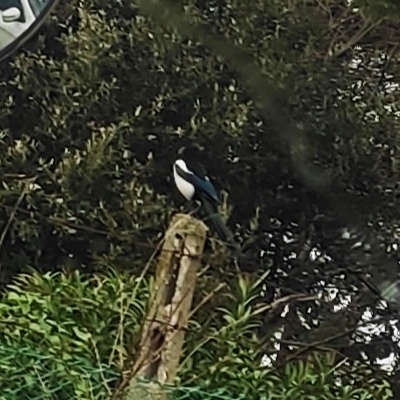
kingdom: Animalia
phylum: Chordata
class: Aves
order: Passeriformes
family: Corvidae
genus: Pica
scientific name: Pica pica
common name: Eurasian magpie
